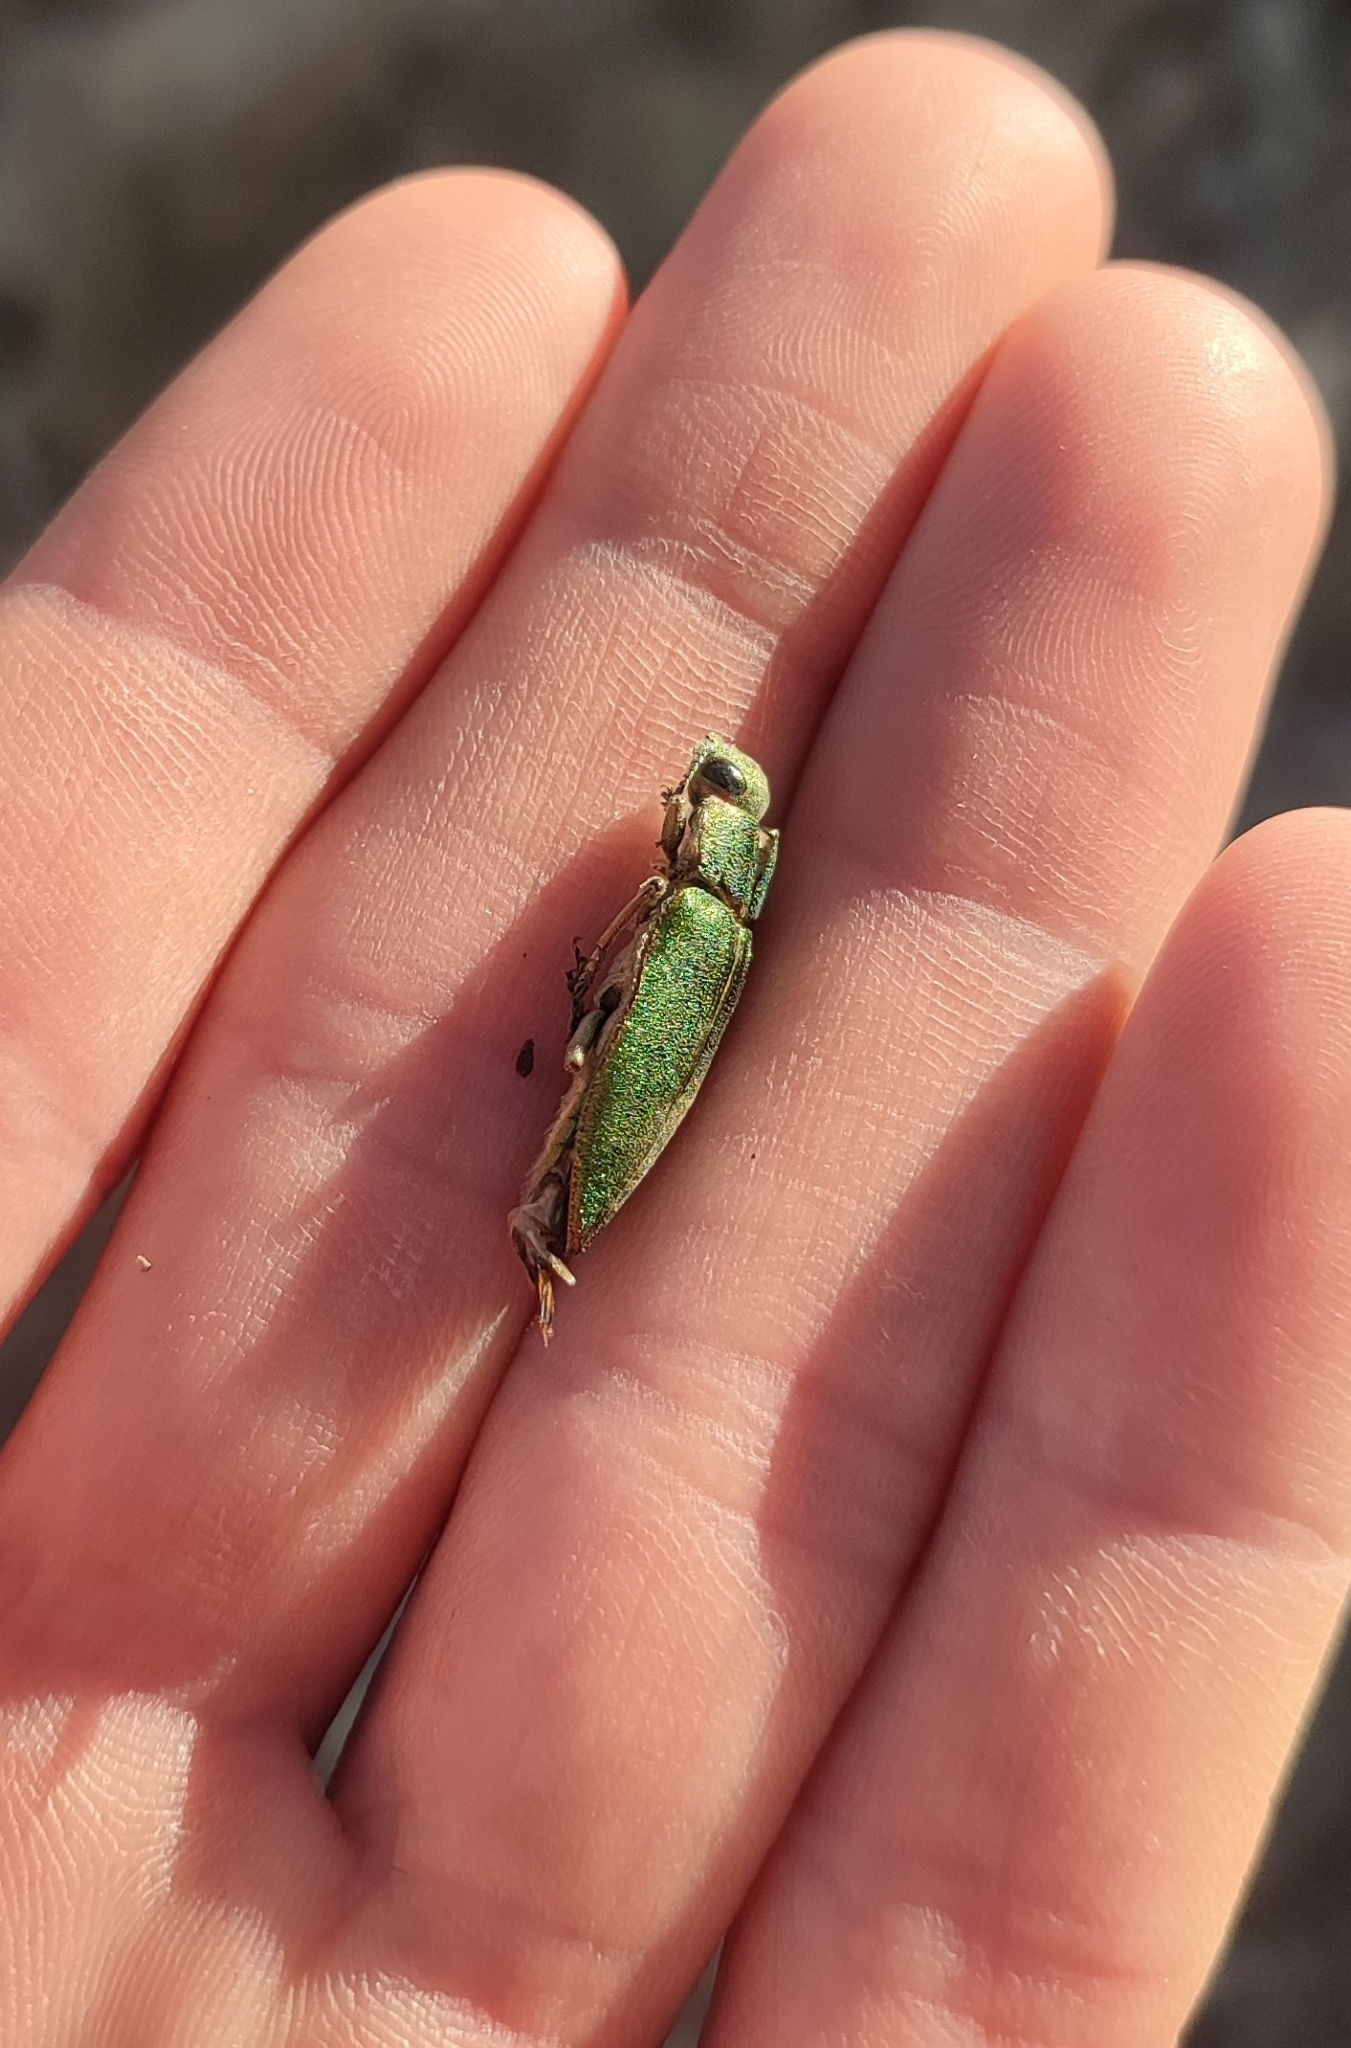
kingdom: Animalia
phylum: Arthropoda
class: Insecta
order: Coleoptera
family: Buprestidae
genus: Latipalpis
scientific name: Latipalpis plana
